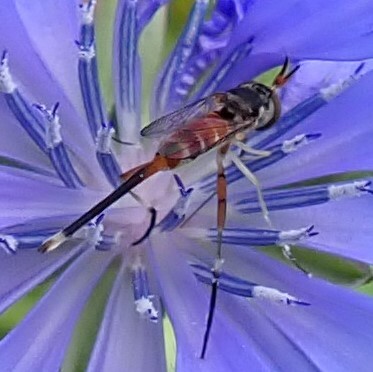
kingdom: Animalia
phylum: Arthropoda
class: Insecta
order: Diptera
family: Conopidae
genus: Stylogaster
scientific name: Stylogaster neglecta
